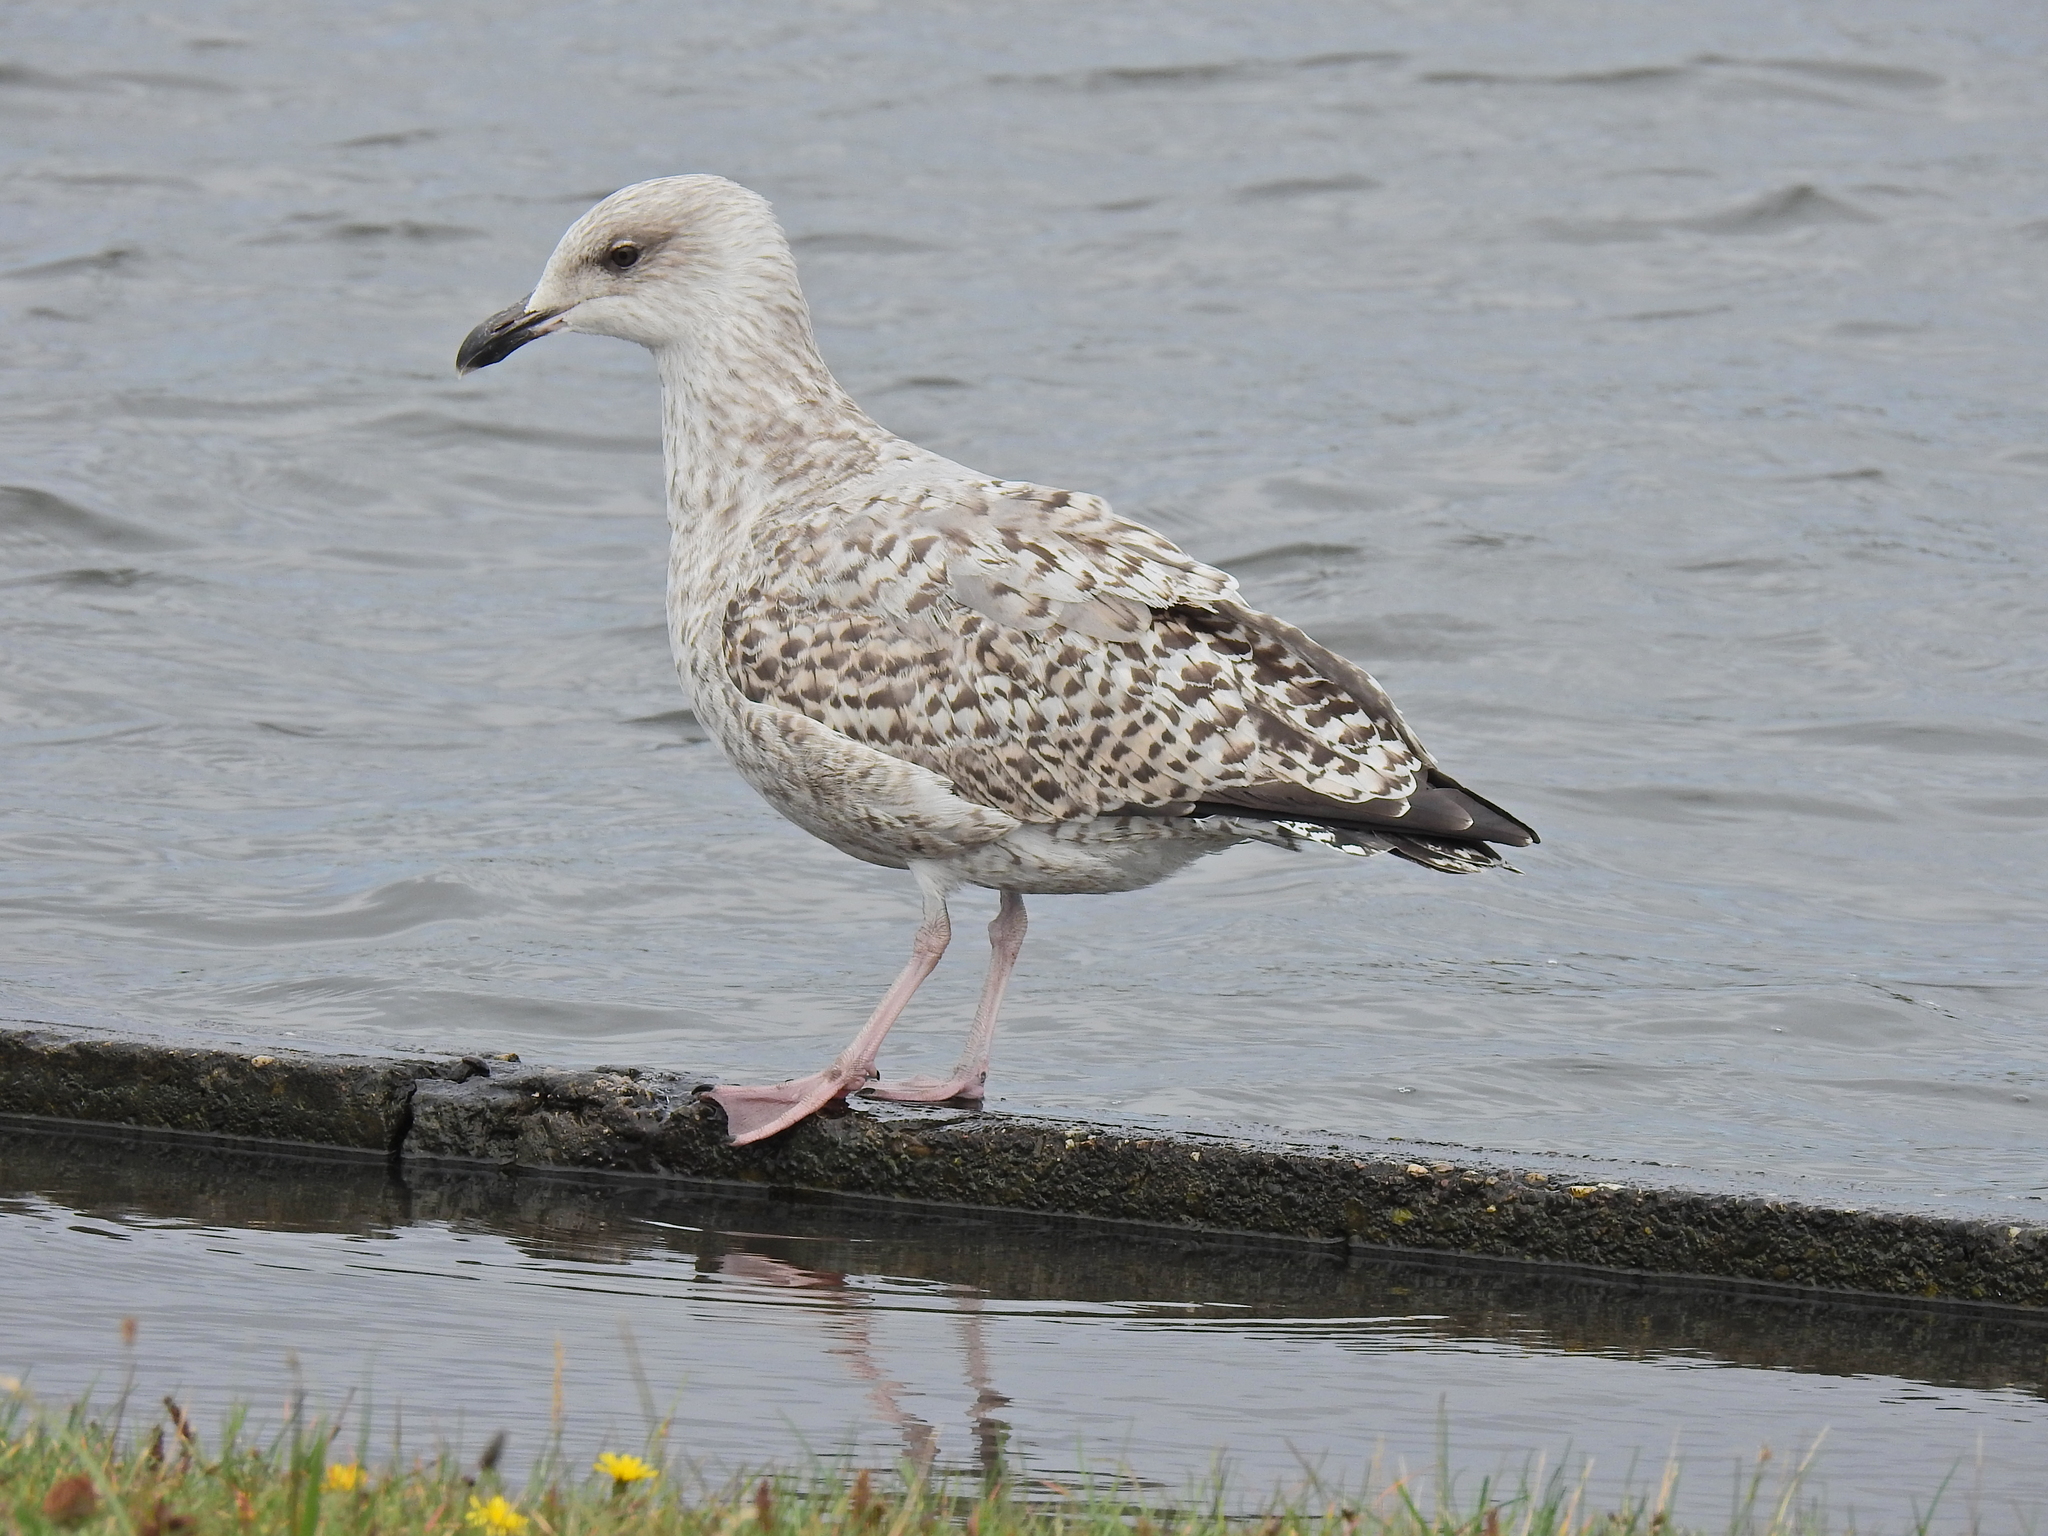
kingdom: Animalia
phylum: Chordata
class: Aves
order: Charadriiformes
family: Laridae
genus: Larus
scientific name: Larus argentatus
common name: Herring gull
